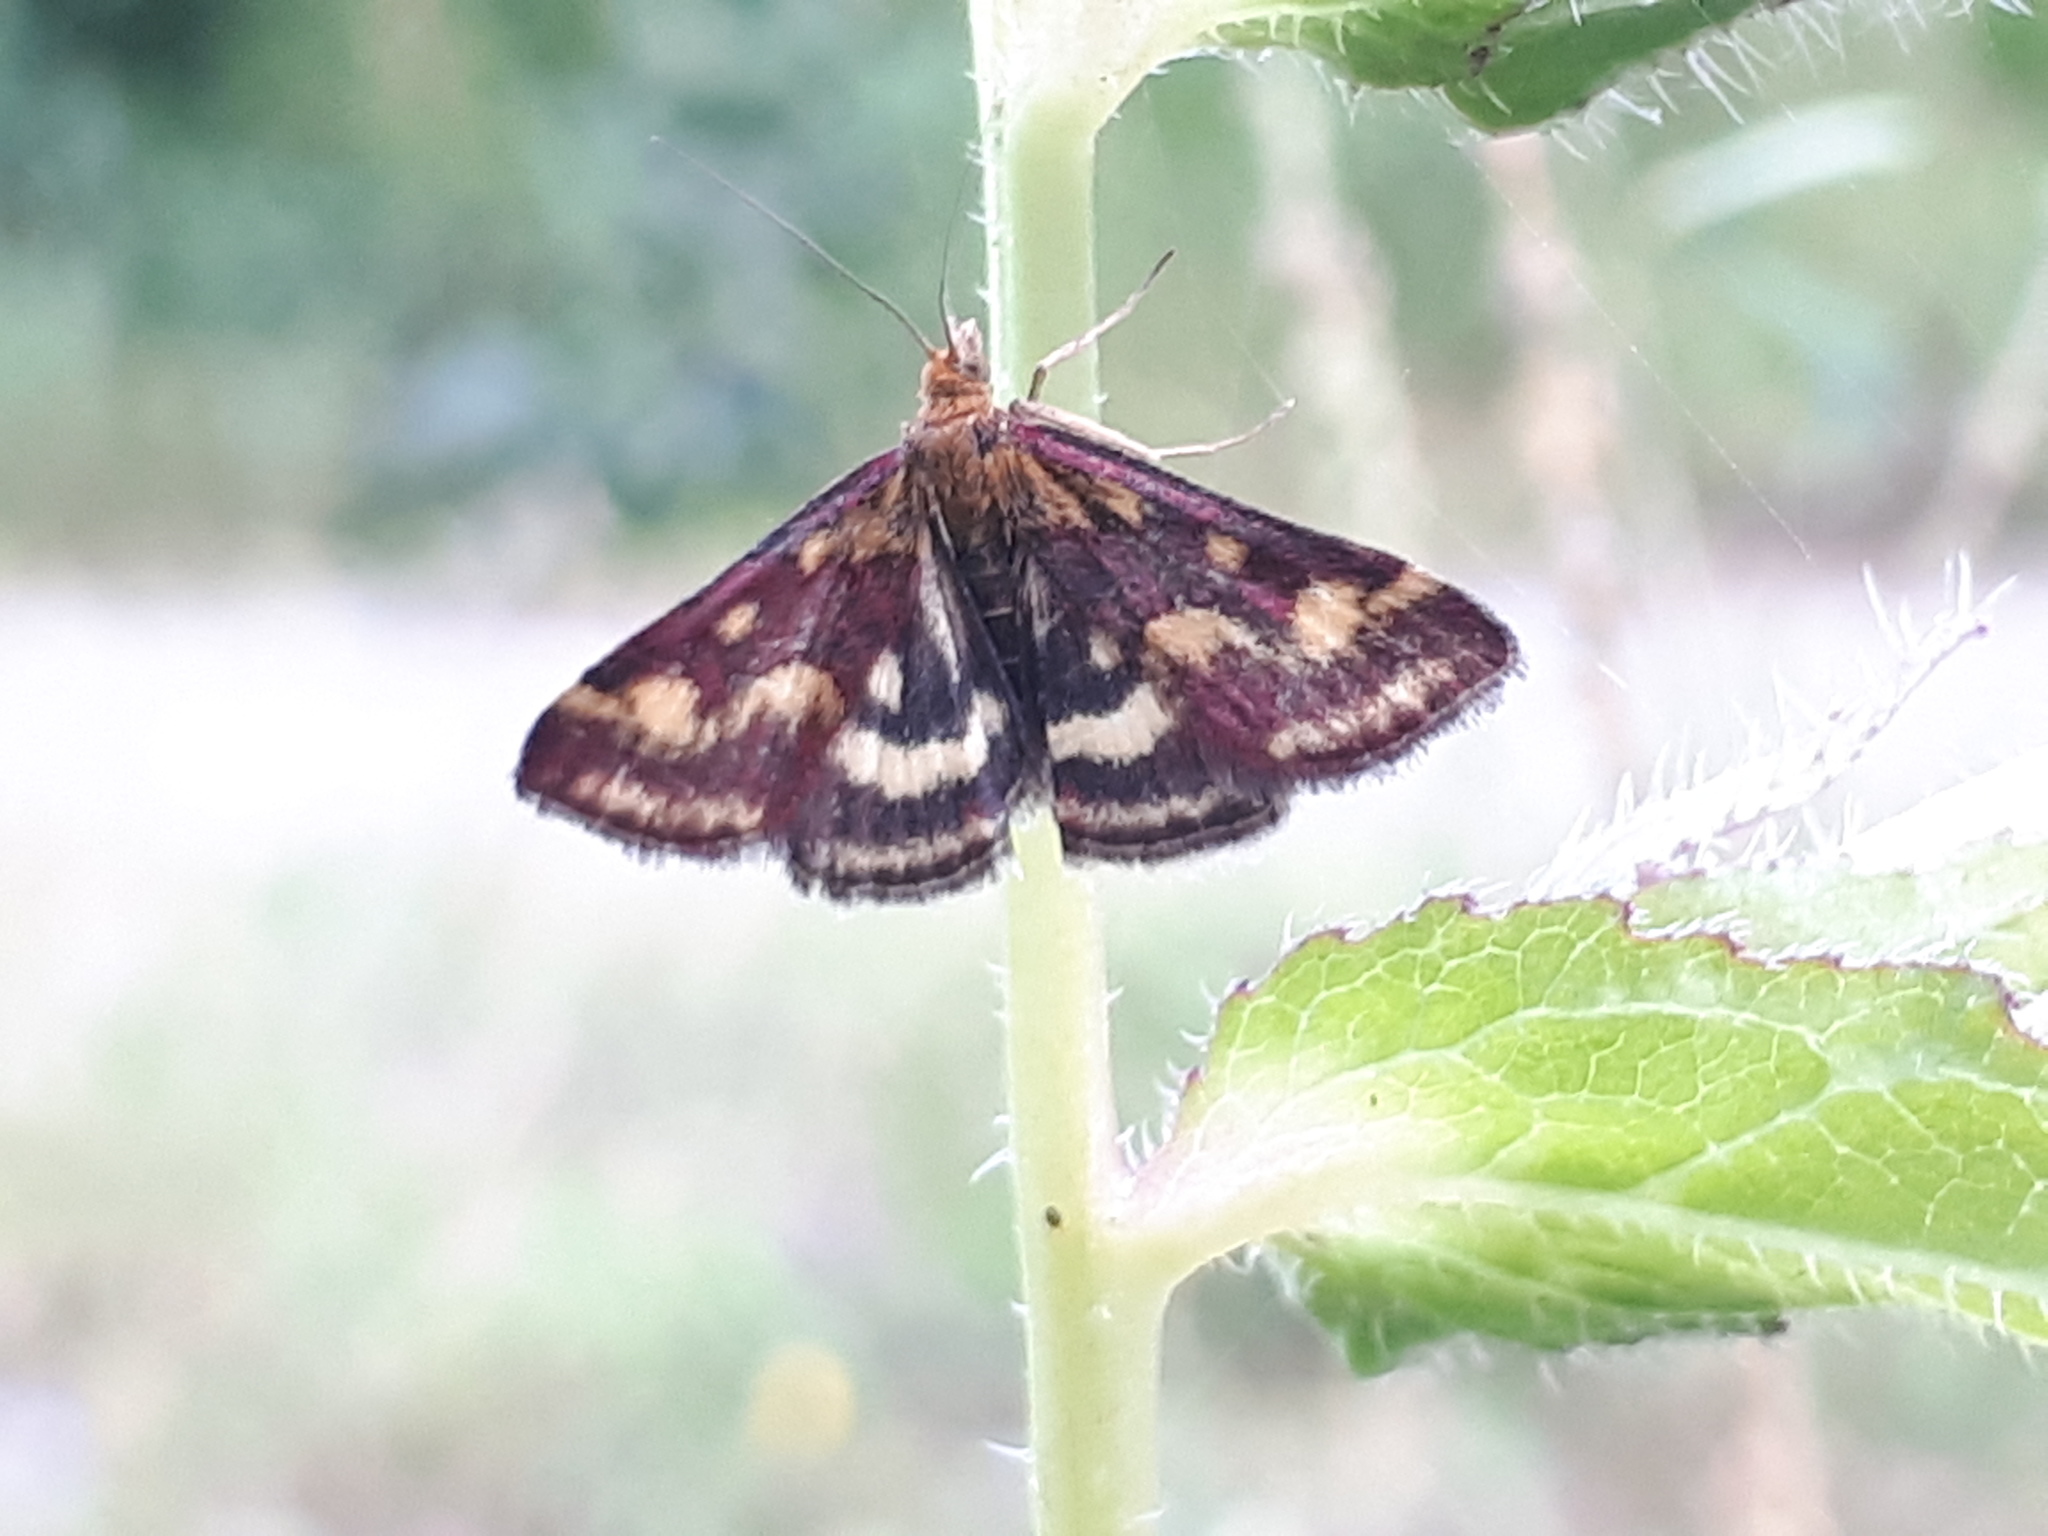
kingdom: Animalia
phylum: Arthropoda
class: Insecta
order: Lepidoptera
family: Crambidae
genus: Pyrausta
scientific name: Pyrausta ostrinalis
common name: Scarce purple & gold
